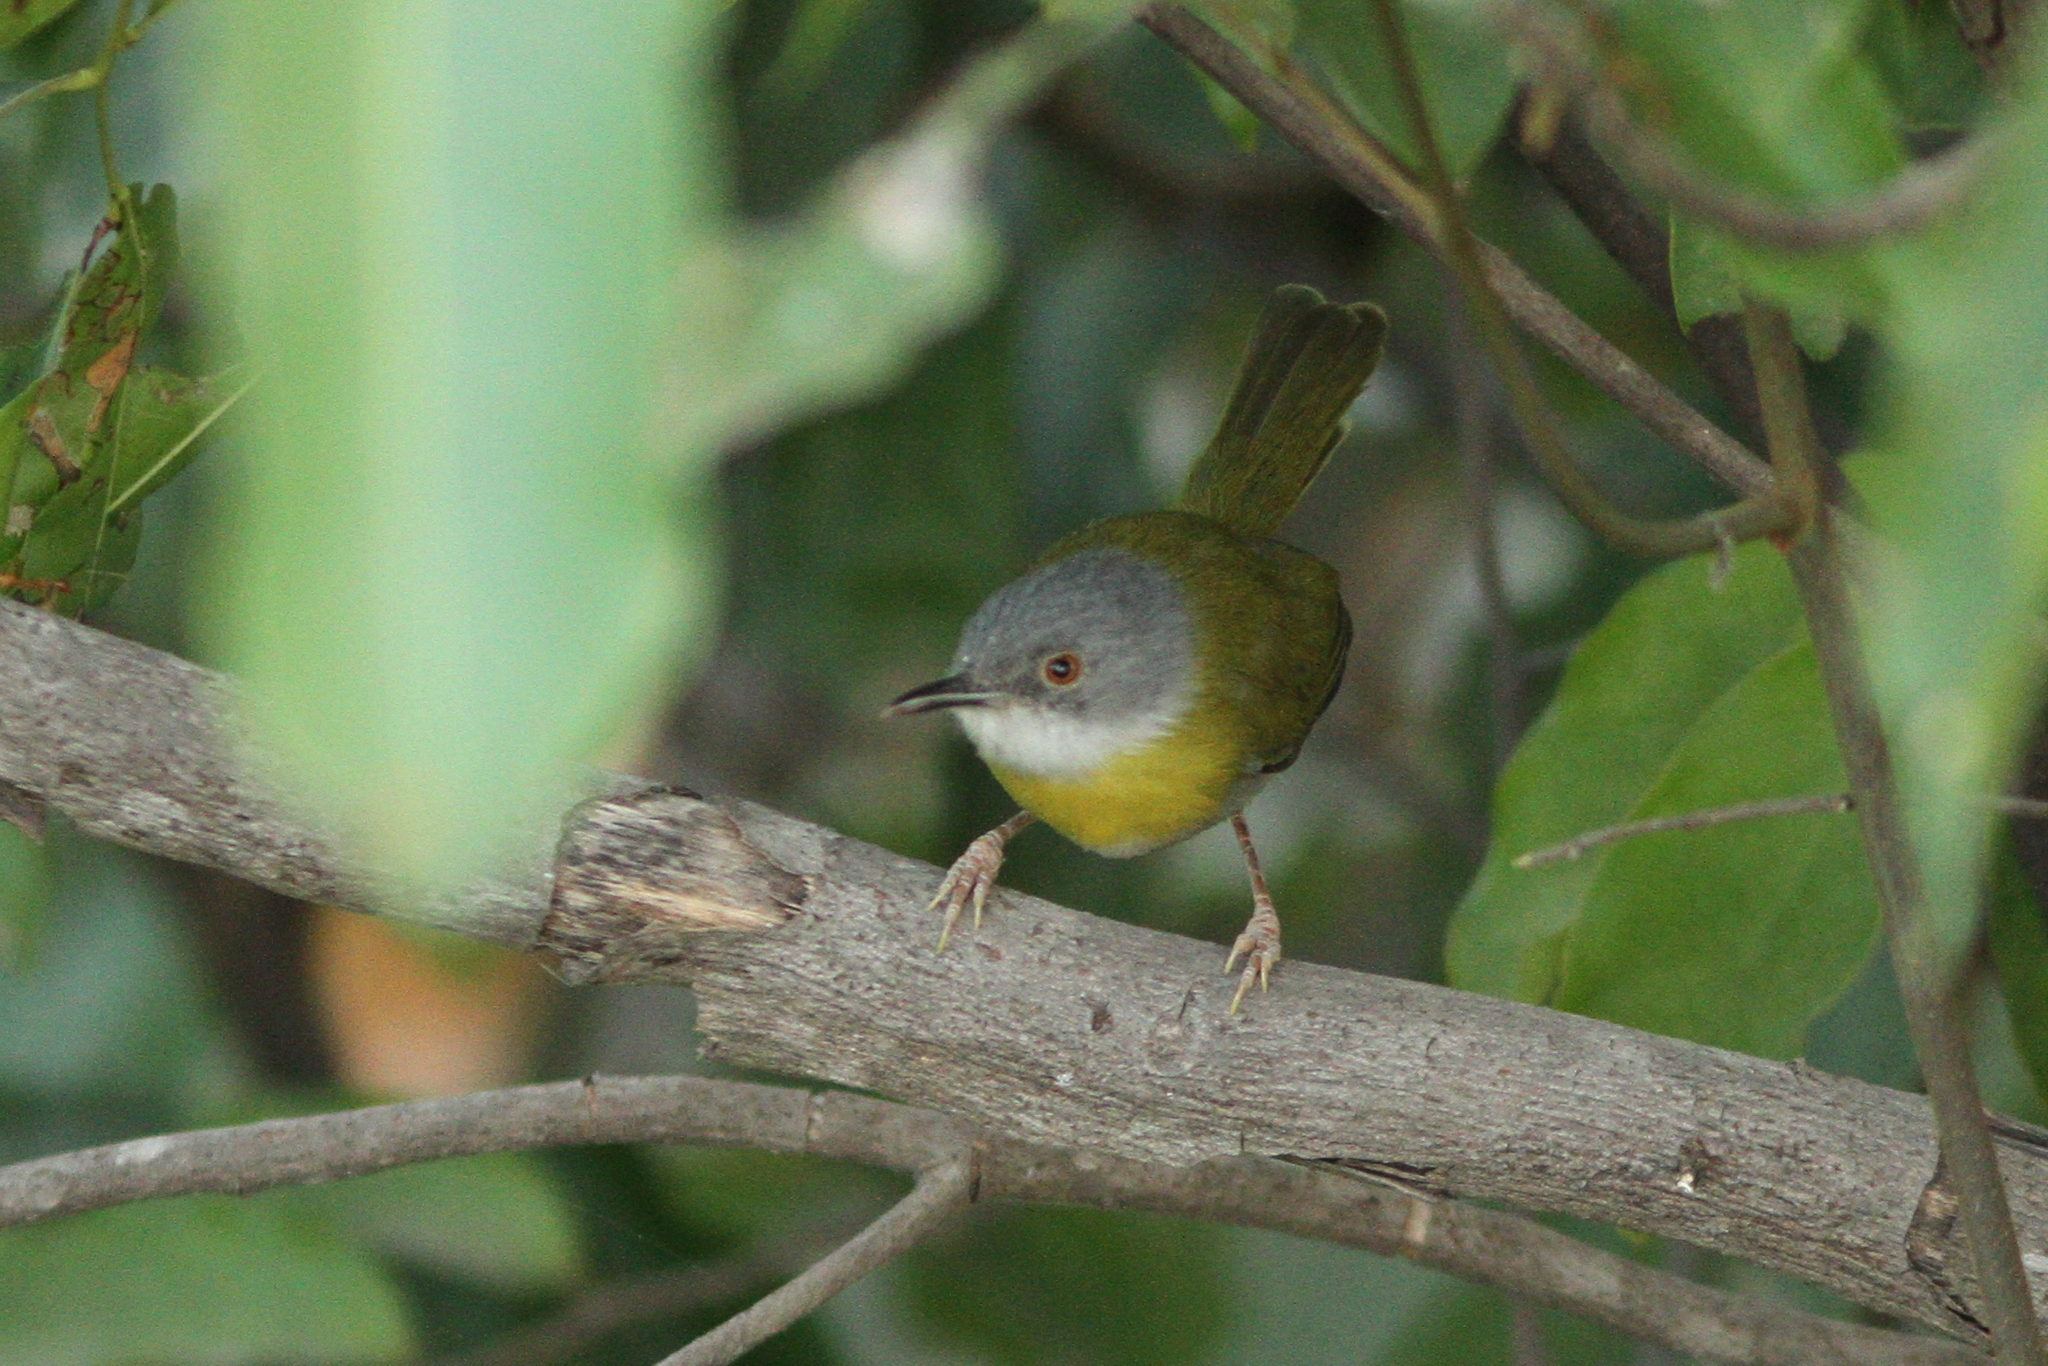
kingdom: Animalia
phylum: Chordata
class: Aves
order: Passeriformes
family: Cisticolidae
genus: Apalis
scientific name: Apalis flavida
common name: Yellow-breasted apalis
